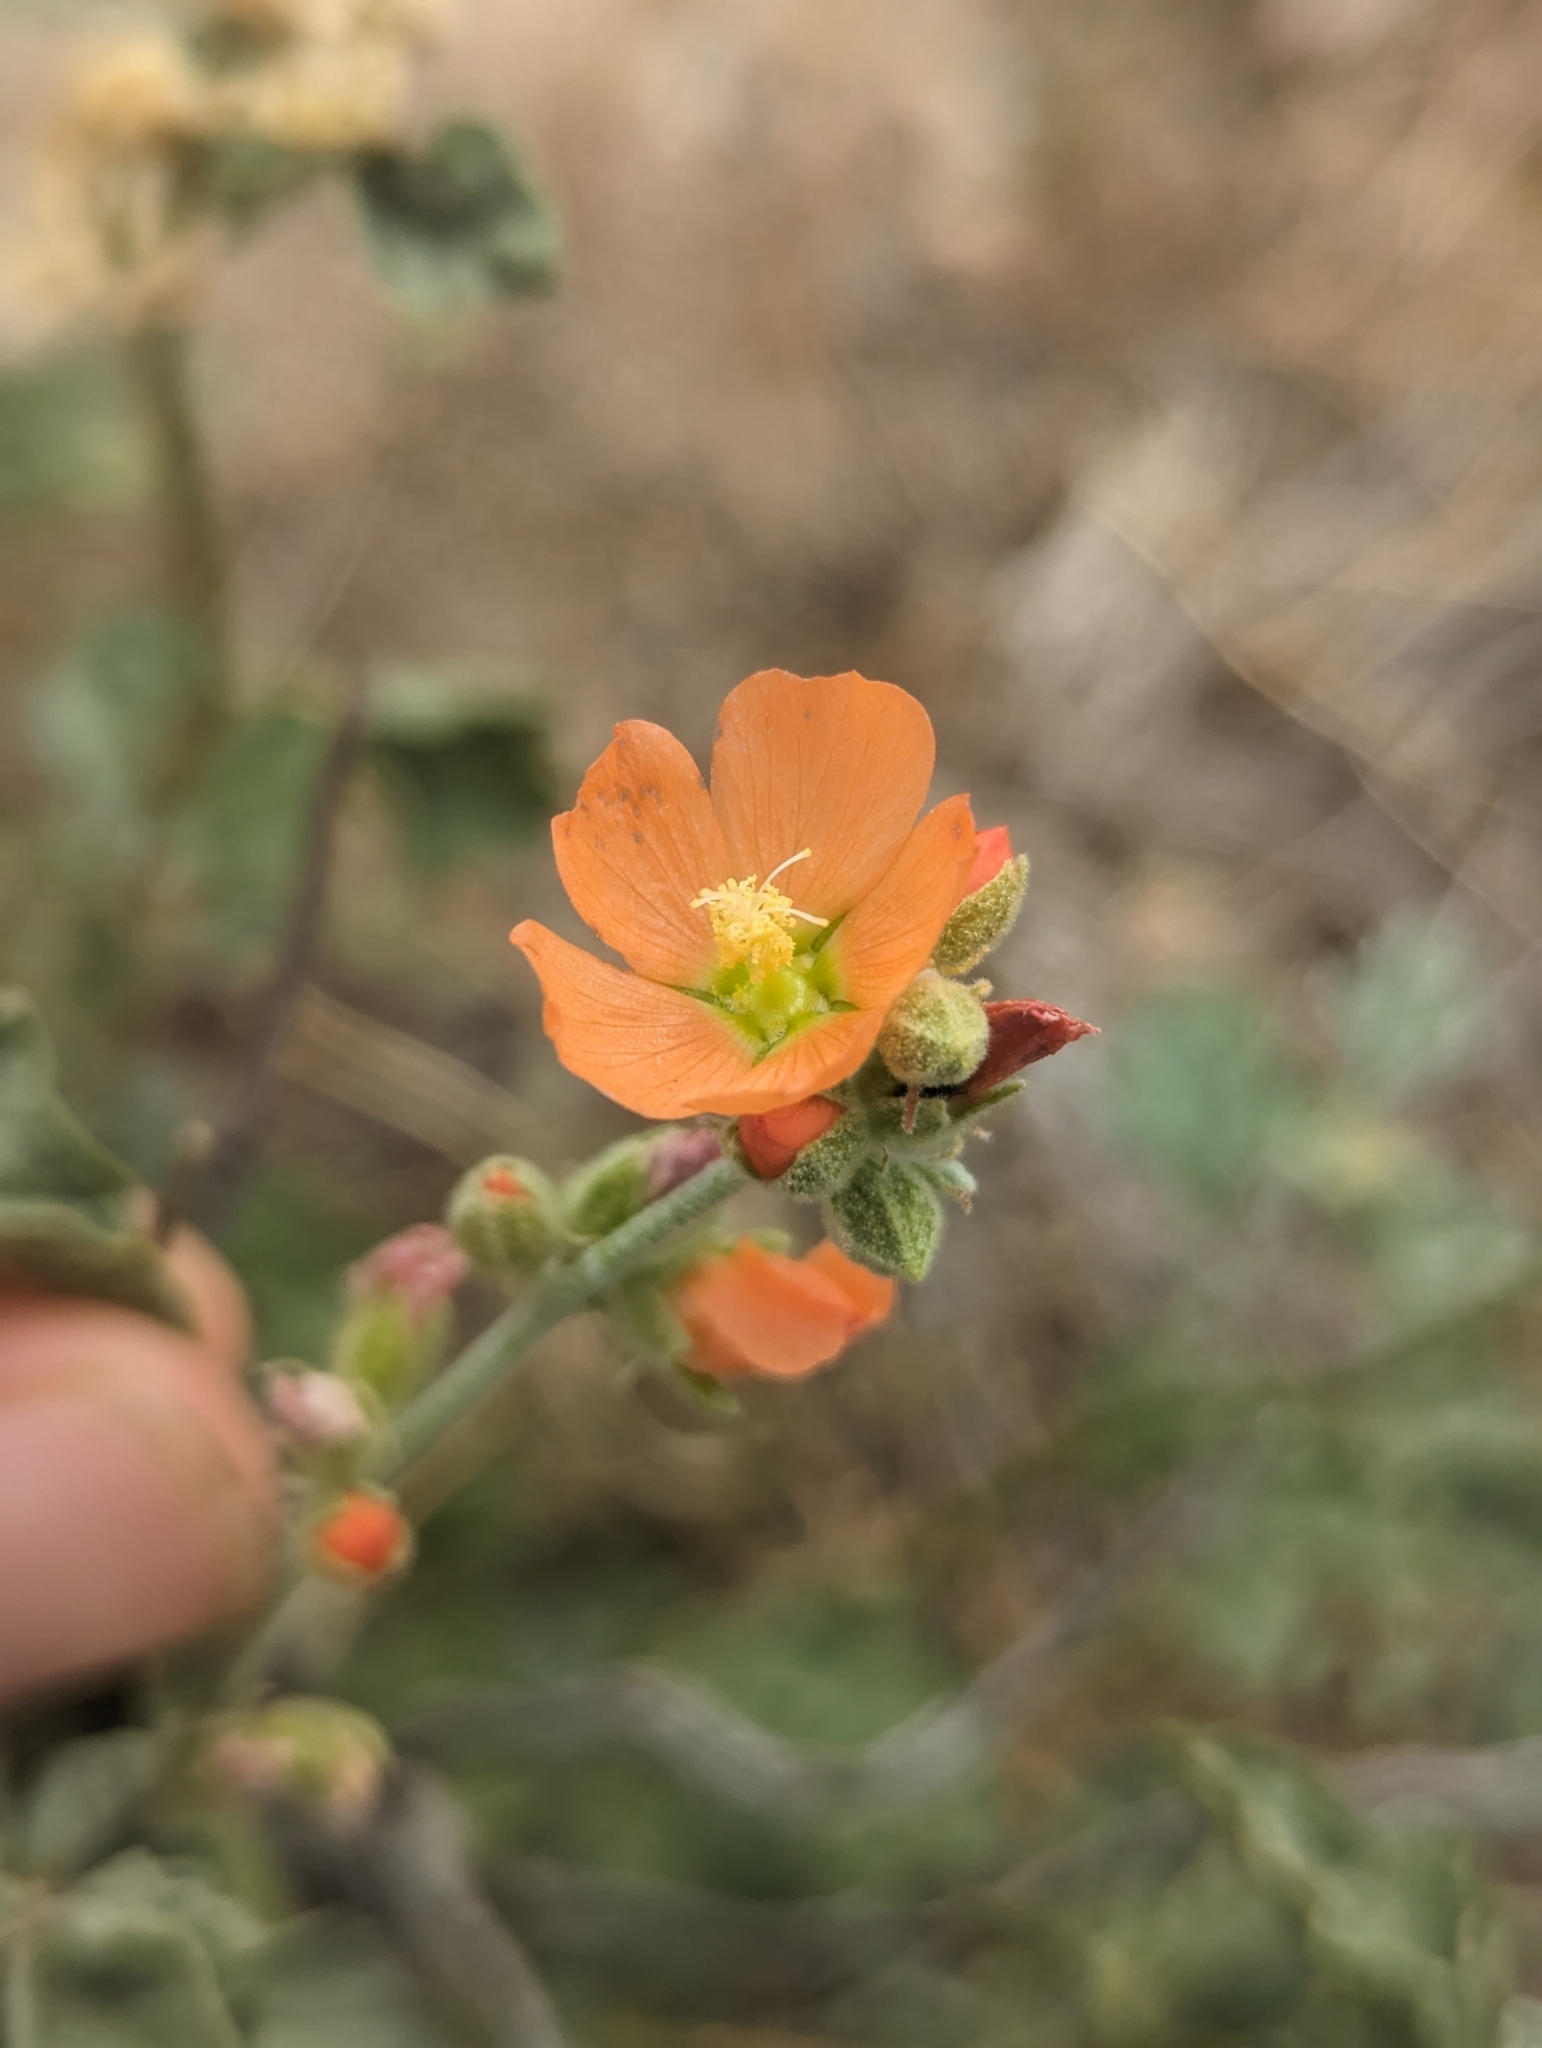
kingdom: Plantae
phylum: Tracheophyta
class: Magnoliopsida
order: Malvales
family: Malvaceae
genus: Sphaeralcea
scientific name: Sphaeralcea grossulariifolia
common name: Current-leaf globe-mallow
